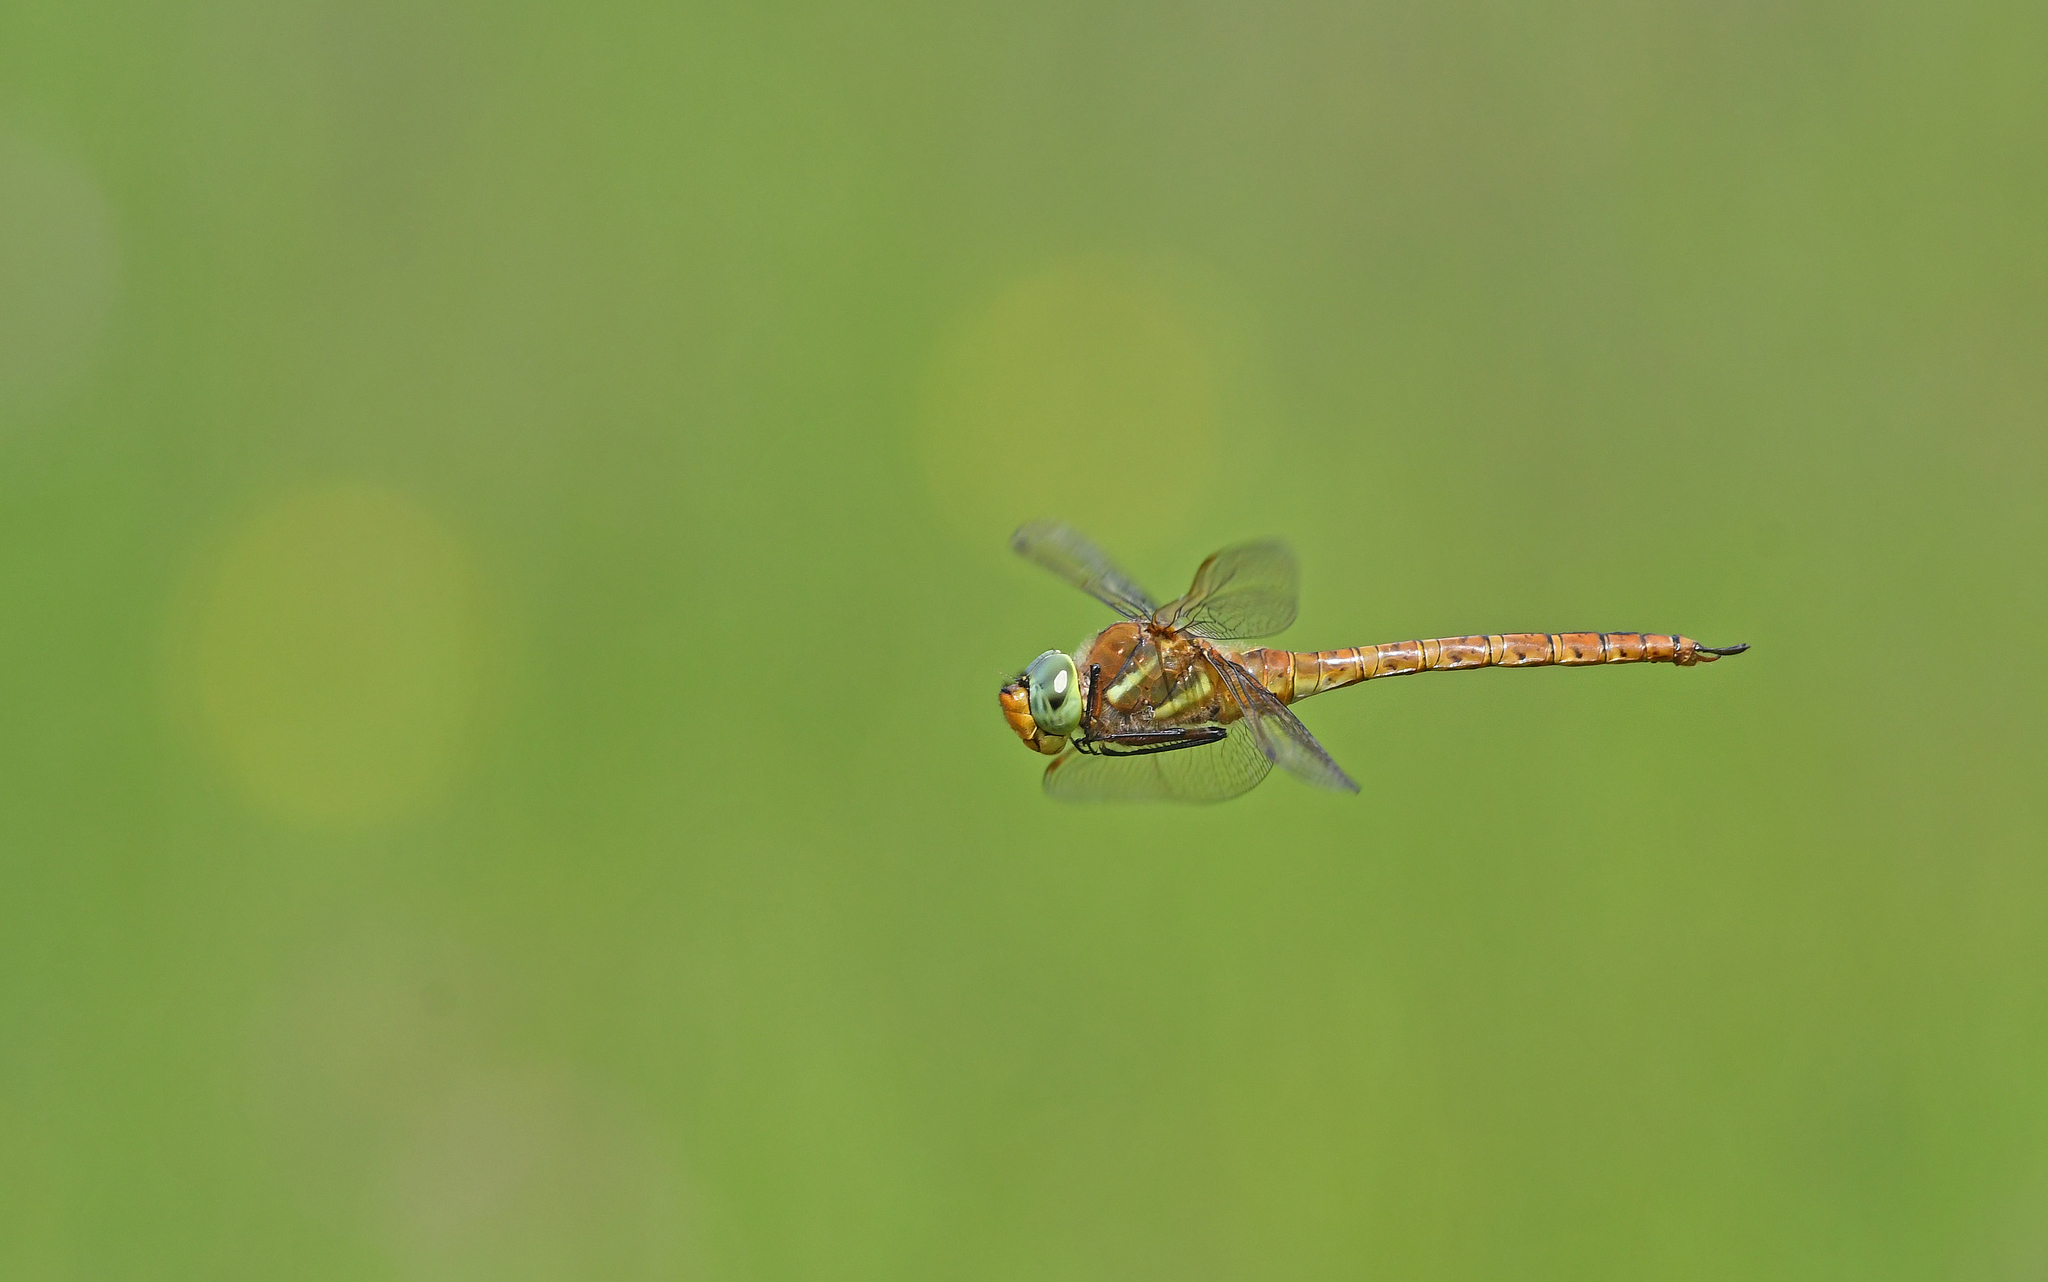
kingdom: Animalia
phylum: Arthropoda
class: Insecta
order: Odonata
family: Aeshnidae
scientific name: Aeshnidae
